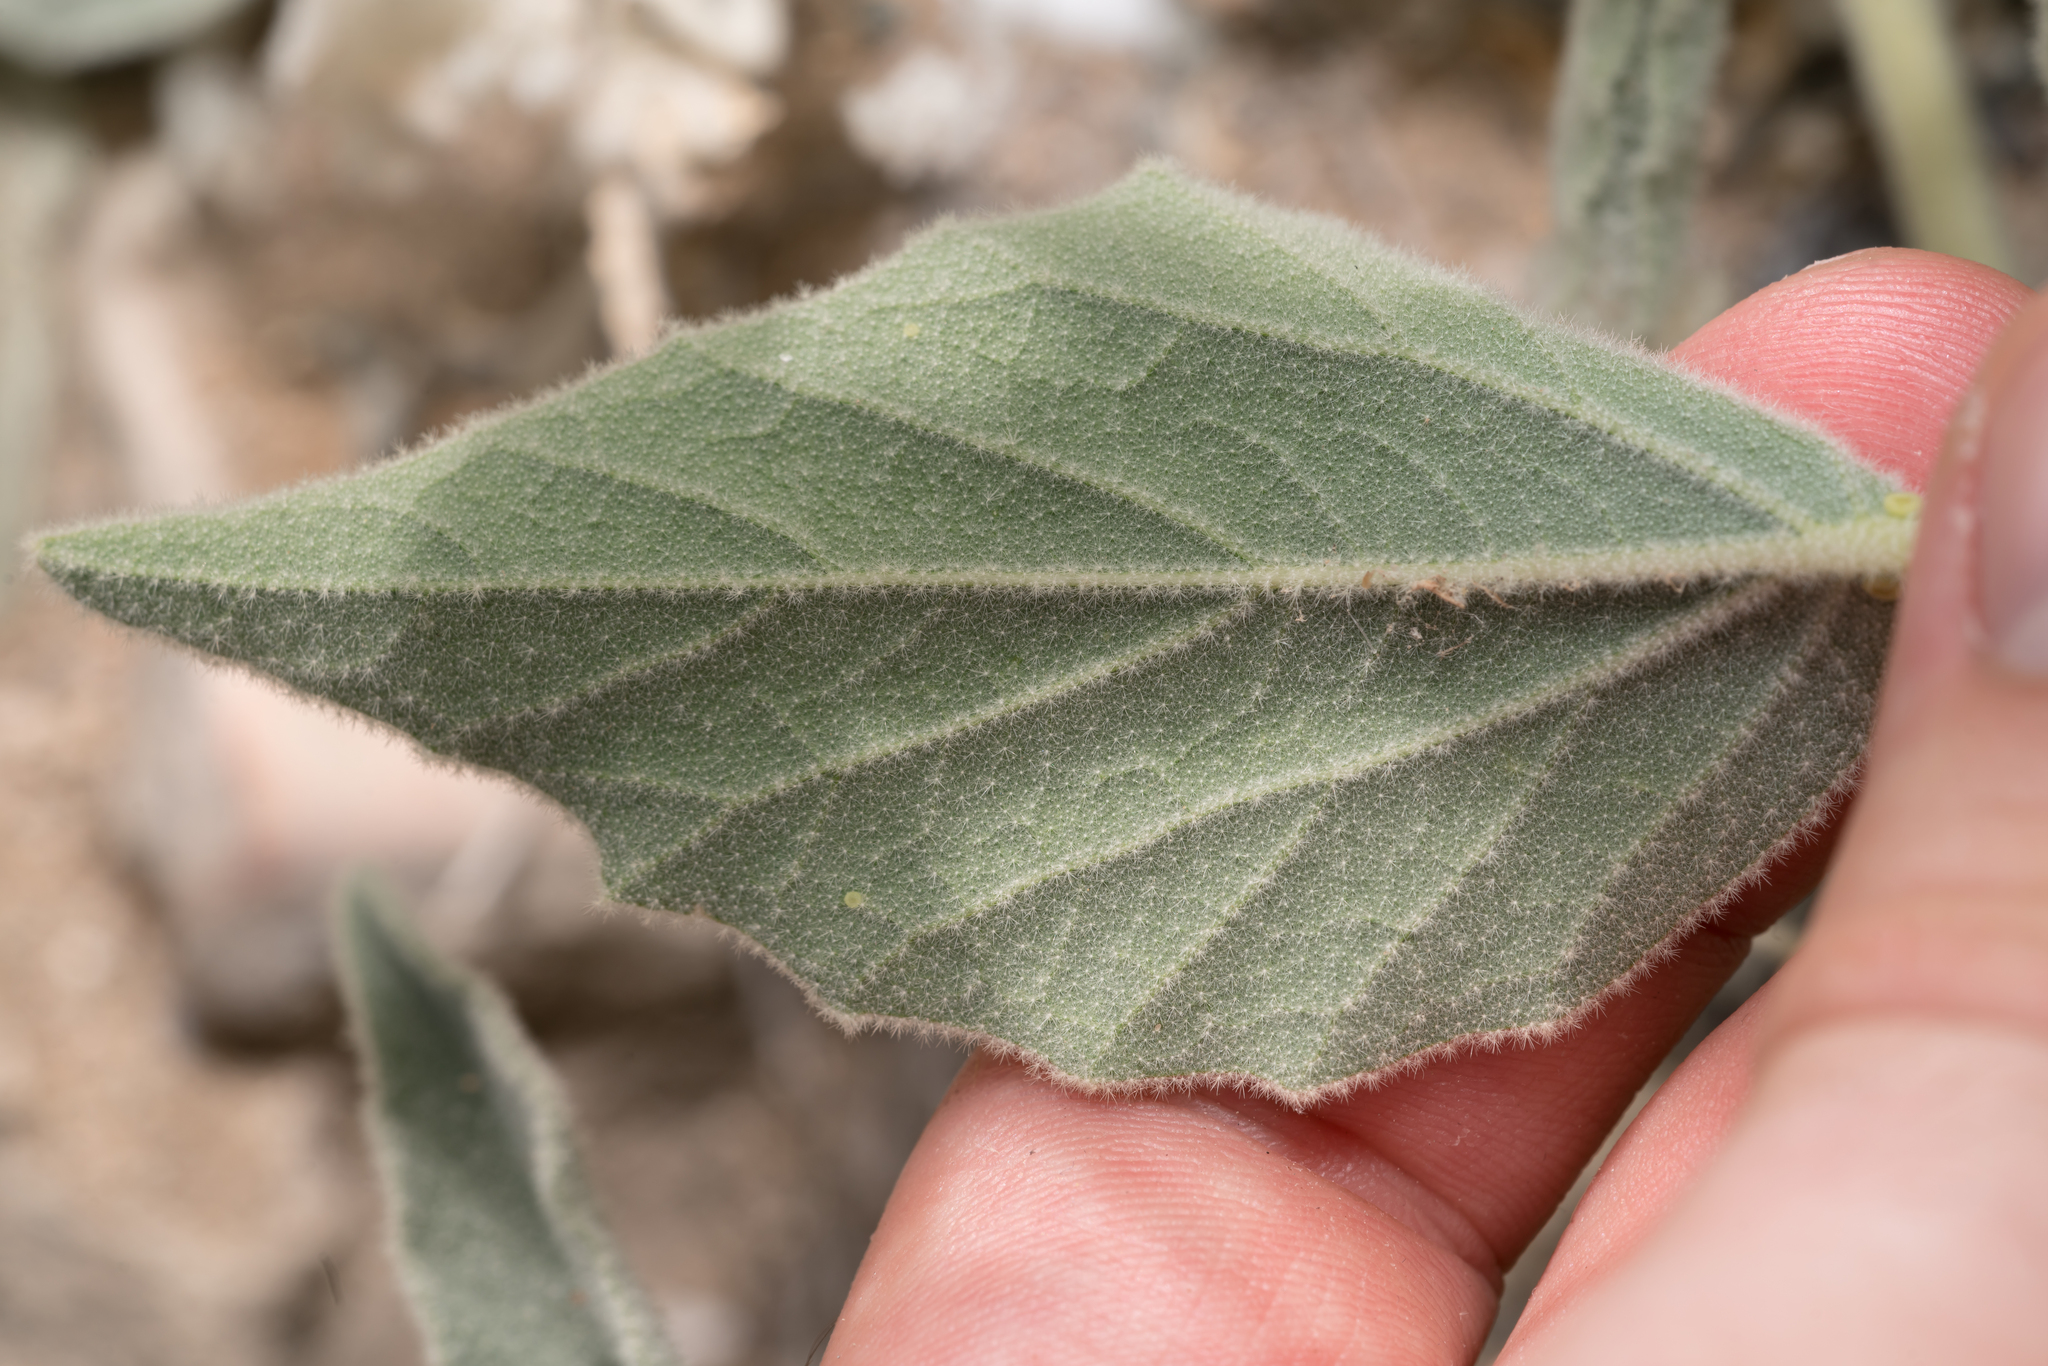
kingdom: Plantae
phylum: Tracheophyta
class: Magnoliopsida
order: Malpighiales
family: Euphorbiaceae
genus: Chrozophora
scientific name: Chrozophora tinctoria
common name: Dyer's litmus
